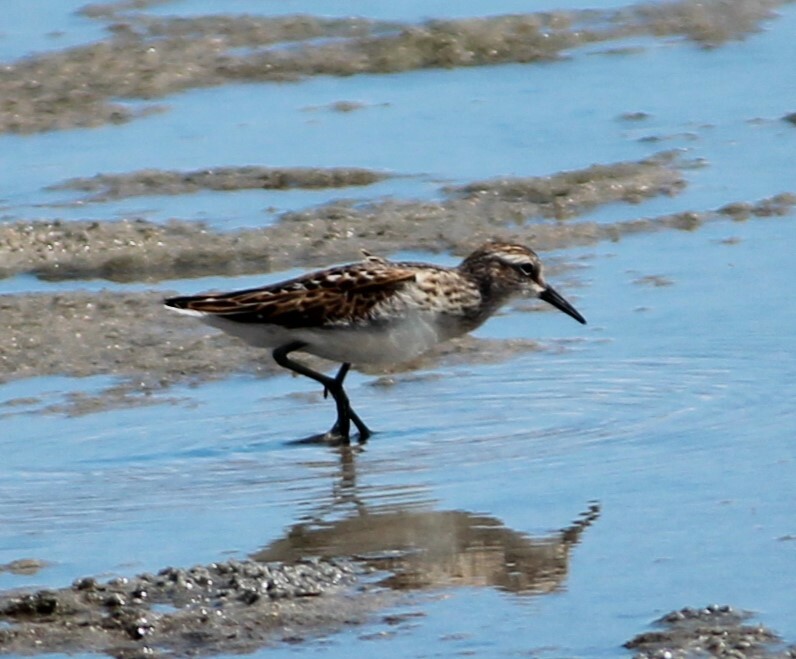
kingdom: Animalia
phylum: Chordata
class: Aves
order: Charadriiformes
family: Scolopacidae
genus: Calidris
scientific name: Calidris minutilla
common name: Least sandpiper
